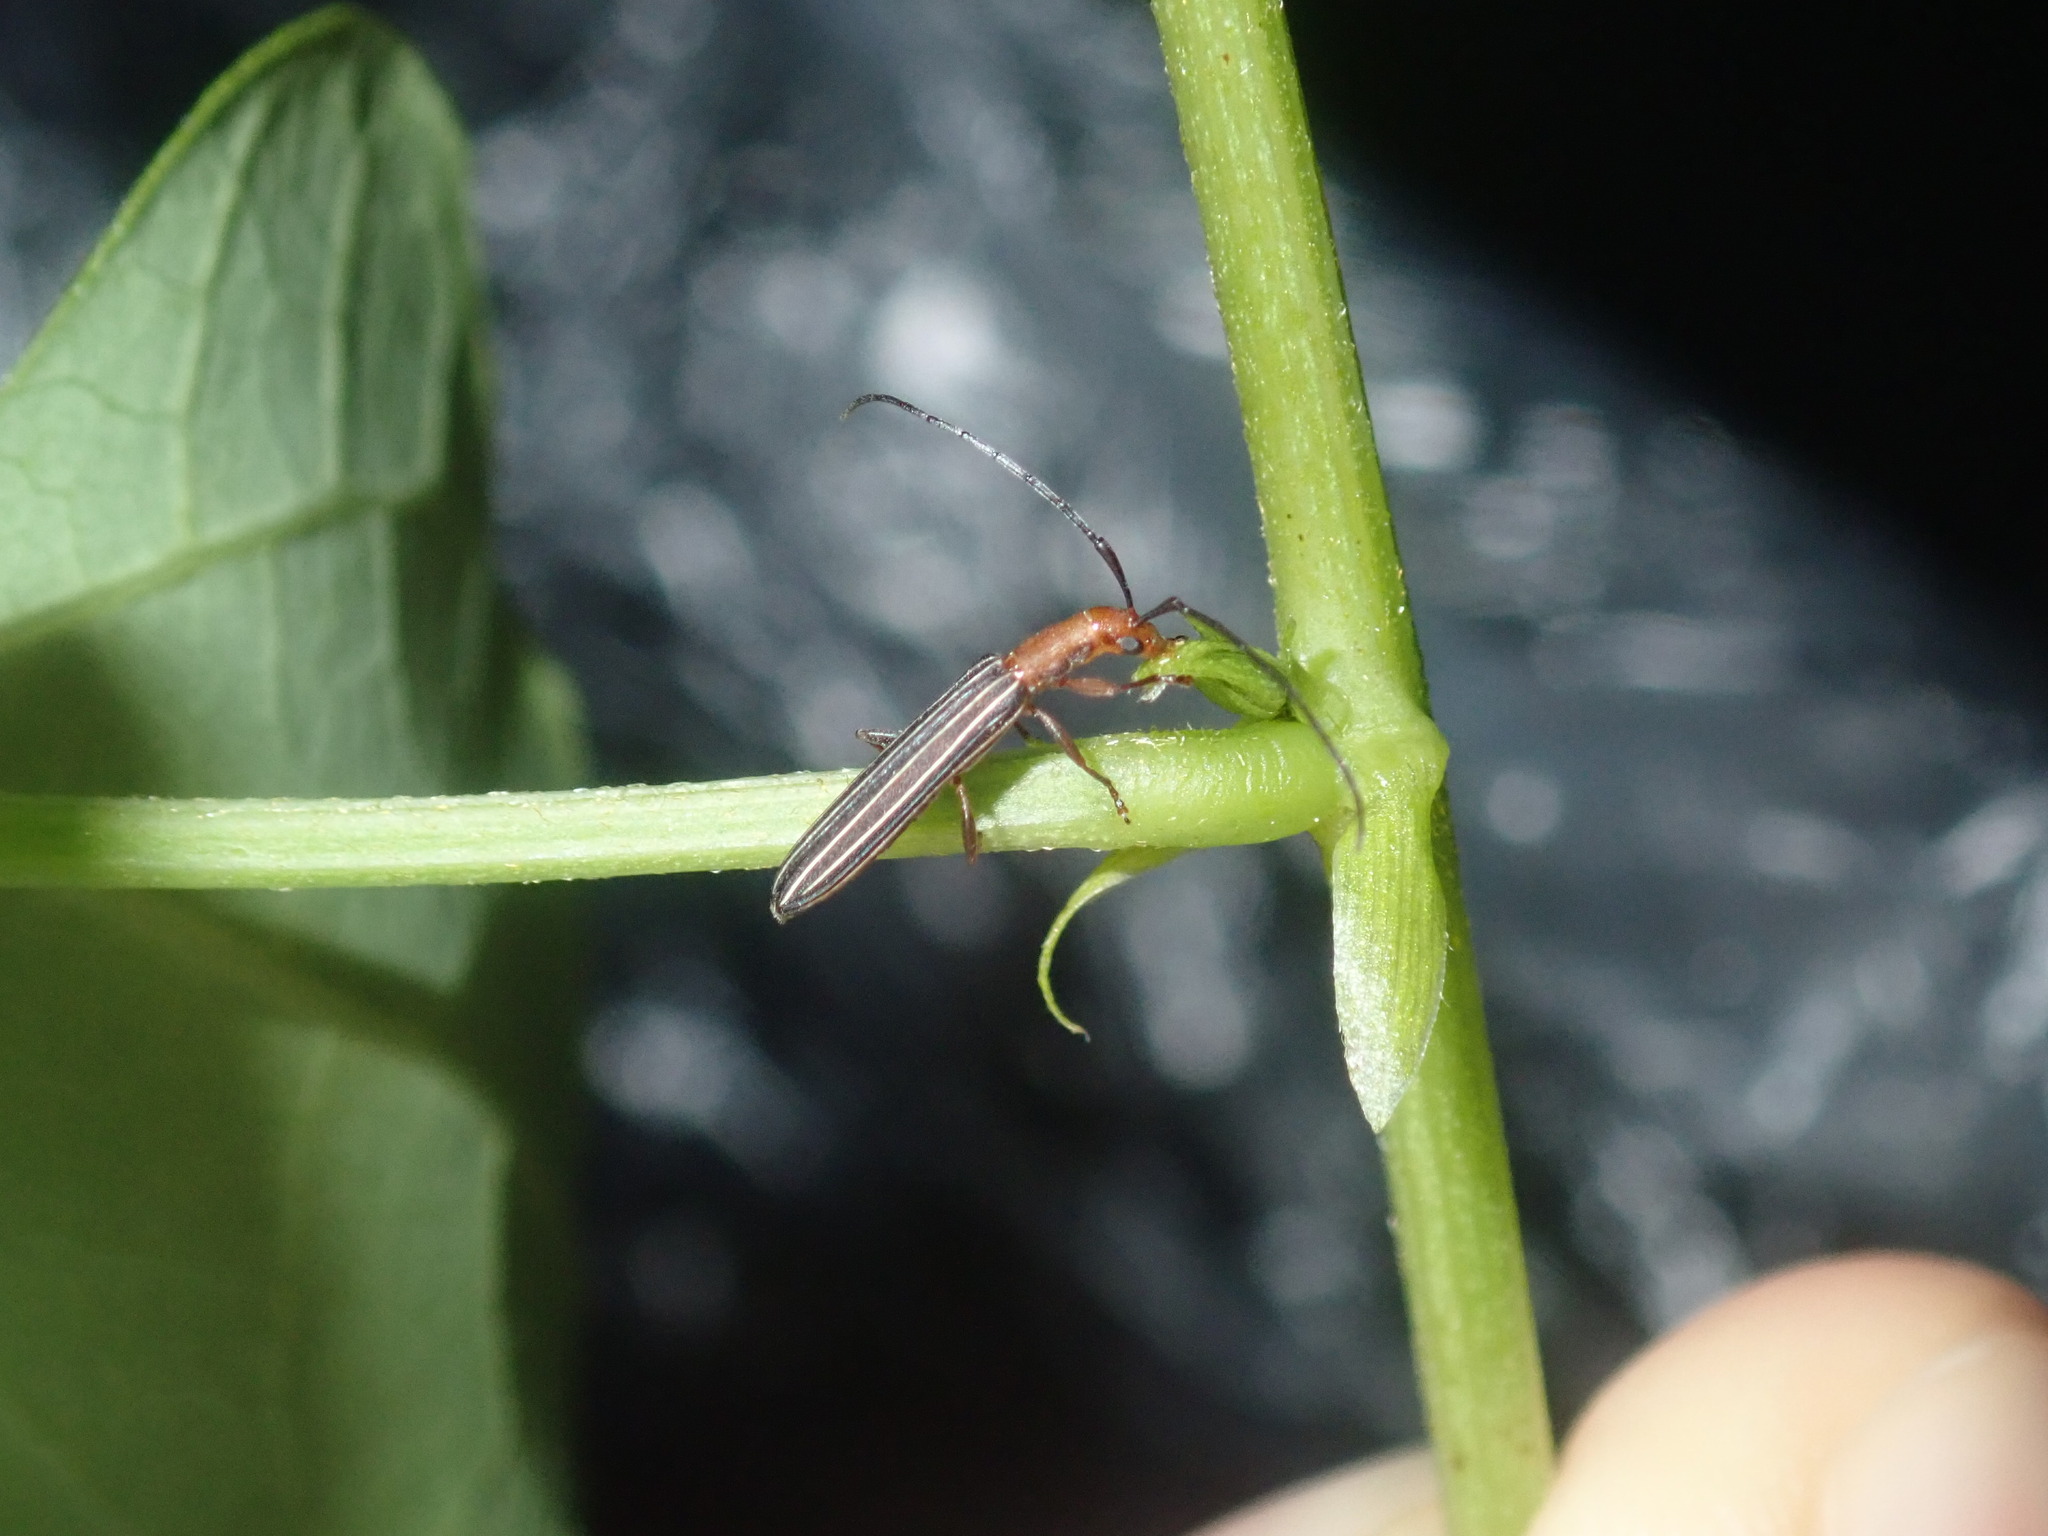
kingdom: Animalia
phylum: Arthropoda
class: Insecta
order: Coleoptera
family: Cerambycidae
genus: Syllitus
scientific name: Syllitus rectus
